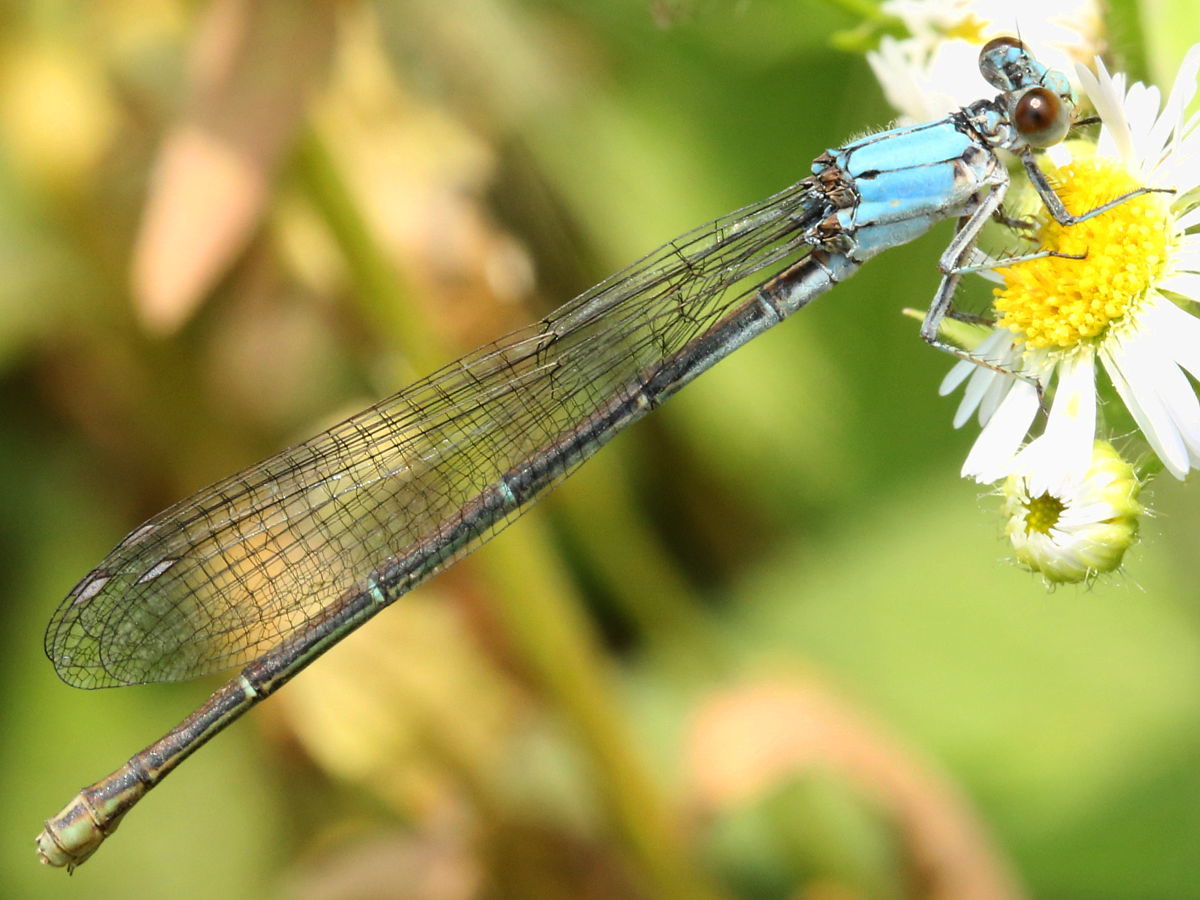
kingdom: Animalia
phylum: Arthropoda
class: Insecta
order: Odonata
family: Coenagrionidae
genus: Argia
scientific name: Argia moesta
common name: Powdered dancer
